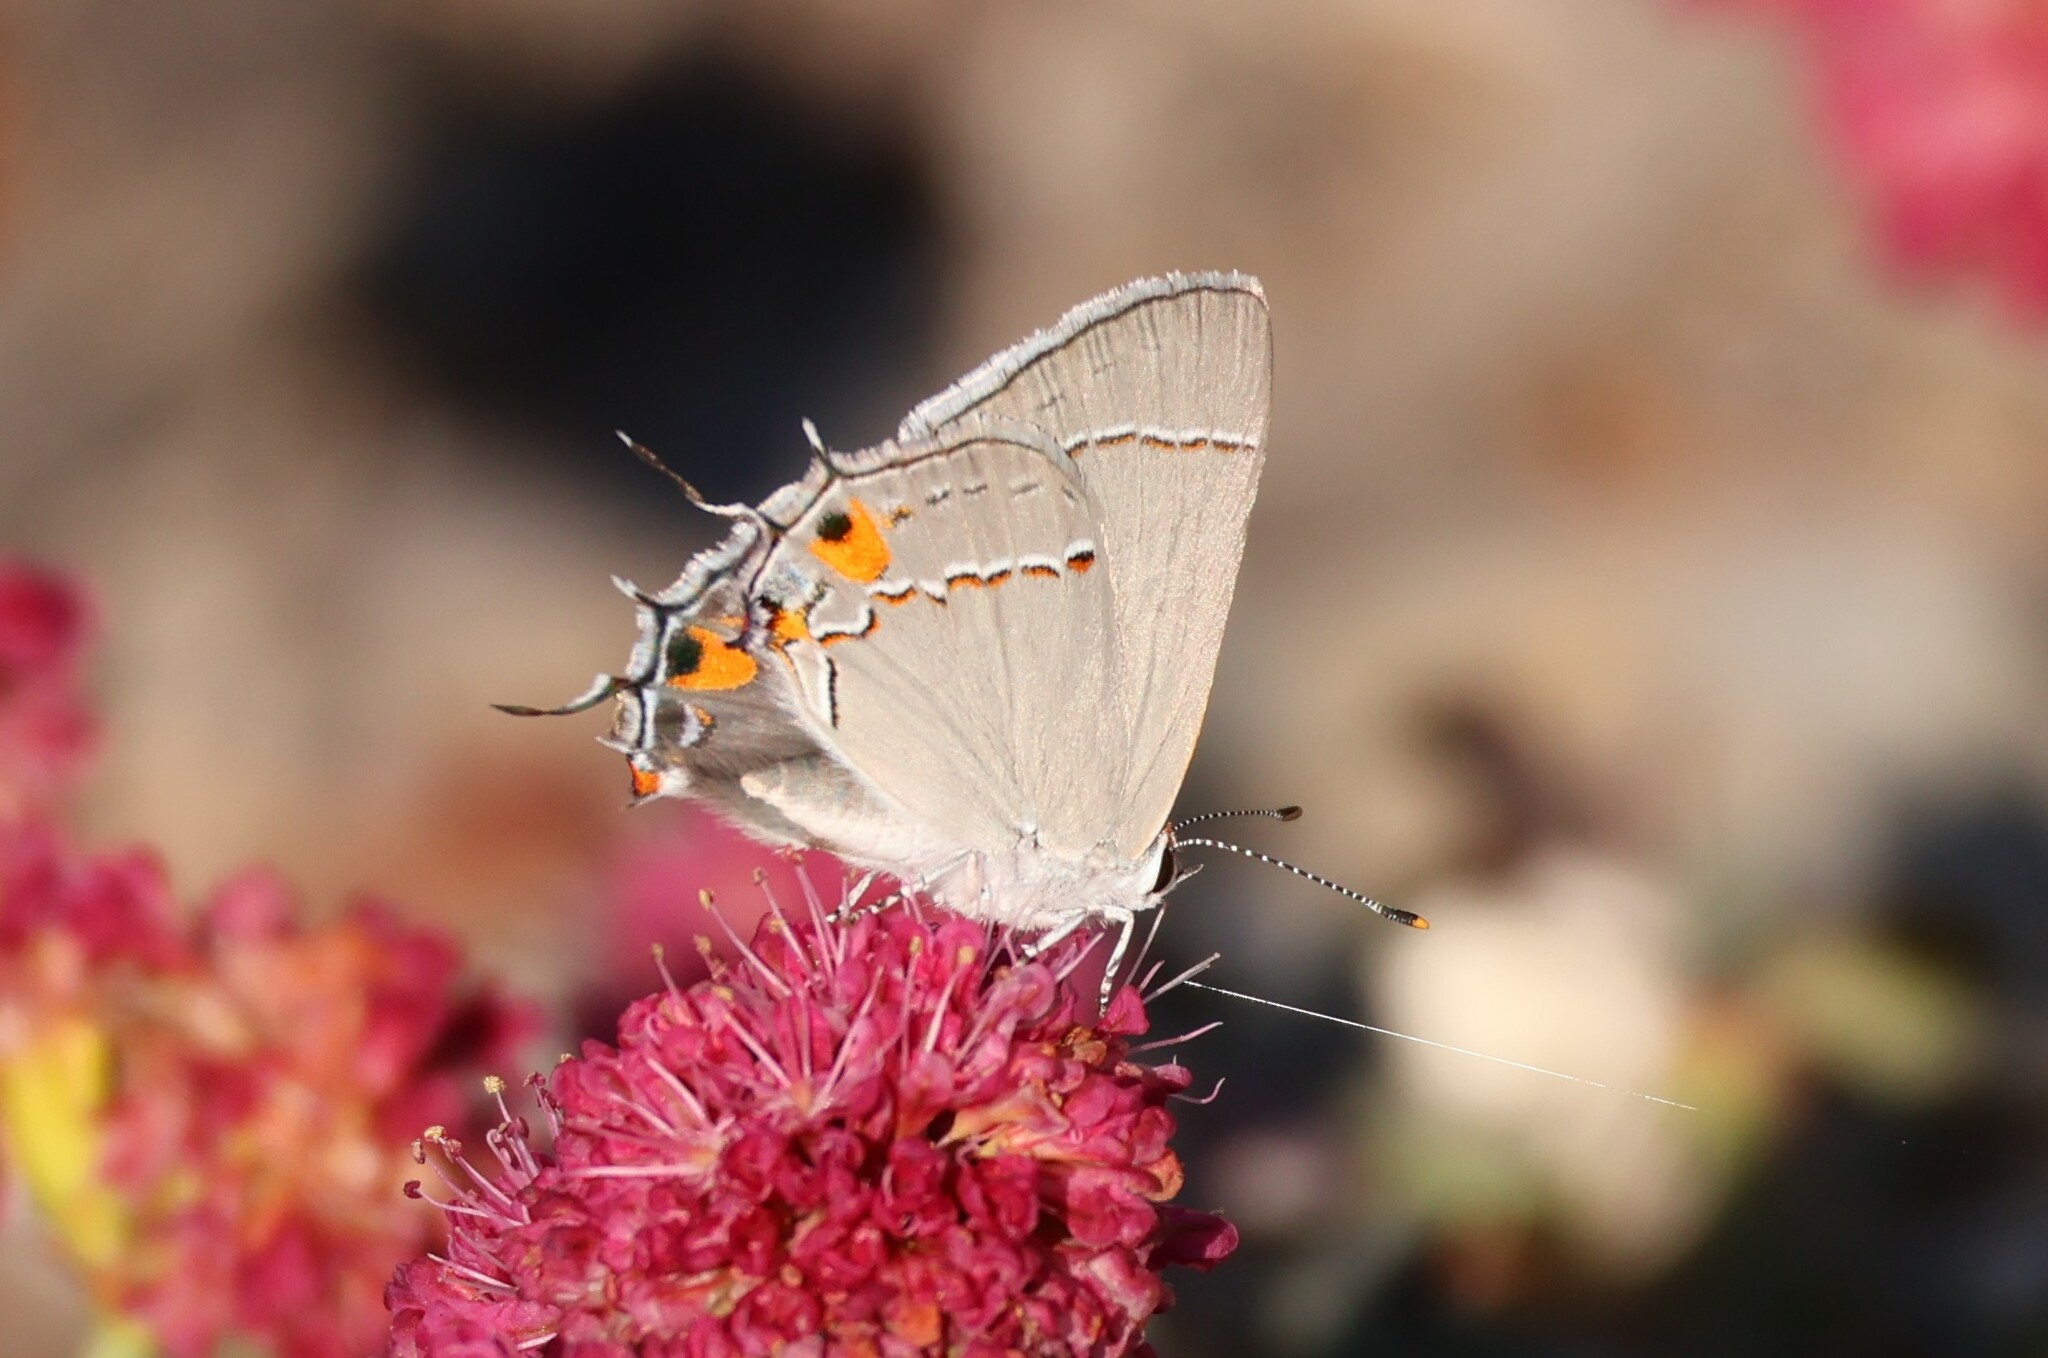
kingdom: Animalia
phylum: Arthropoda
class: Insecta
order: Lepidoptera
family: Lycaenidae
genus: Strymon
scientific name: Strymon melinus
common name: Gray hairstreak
